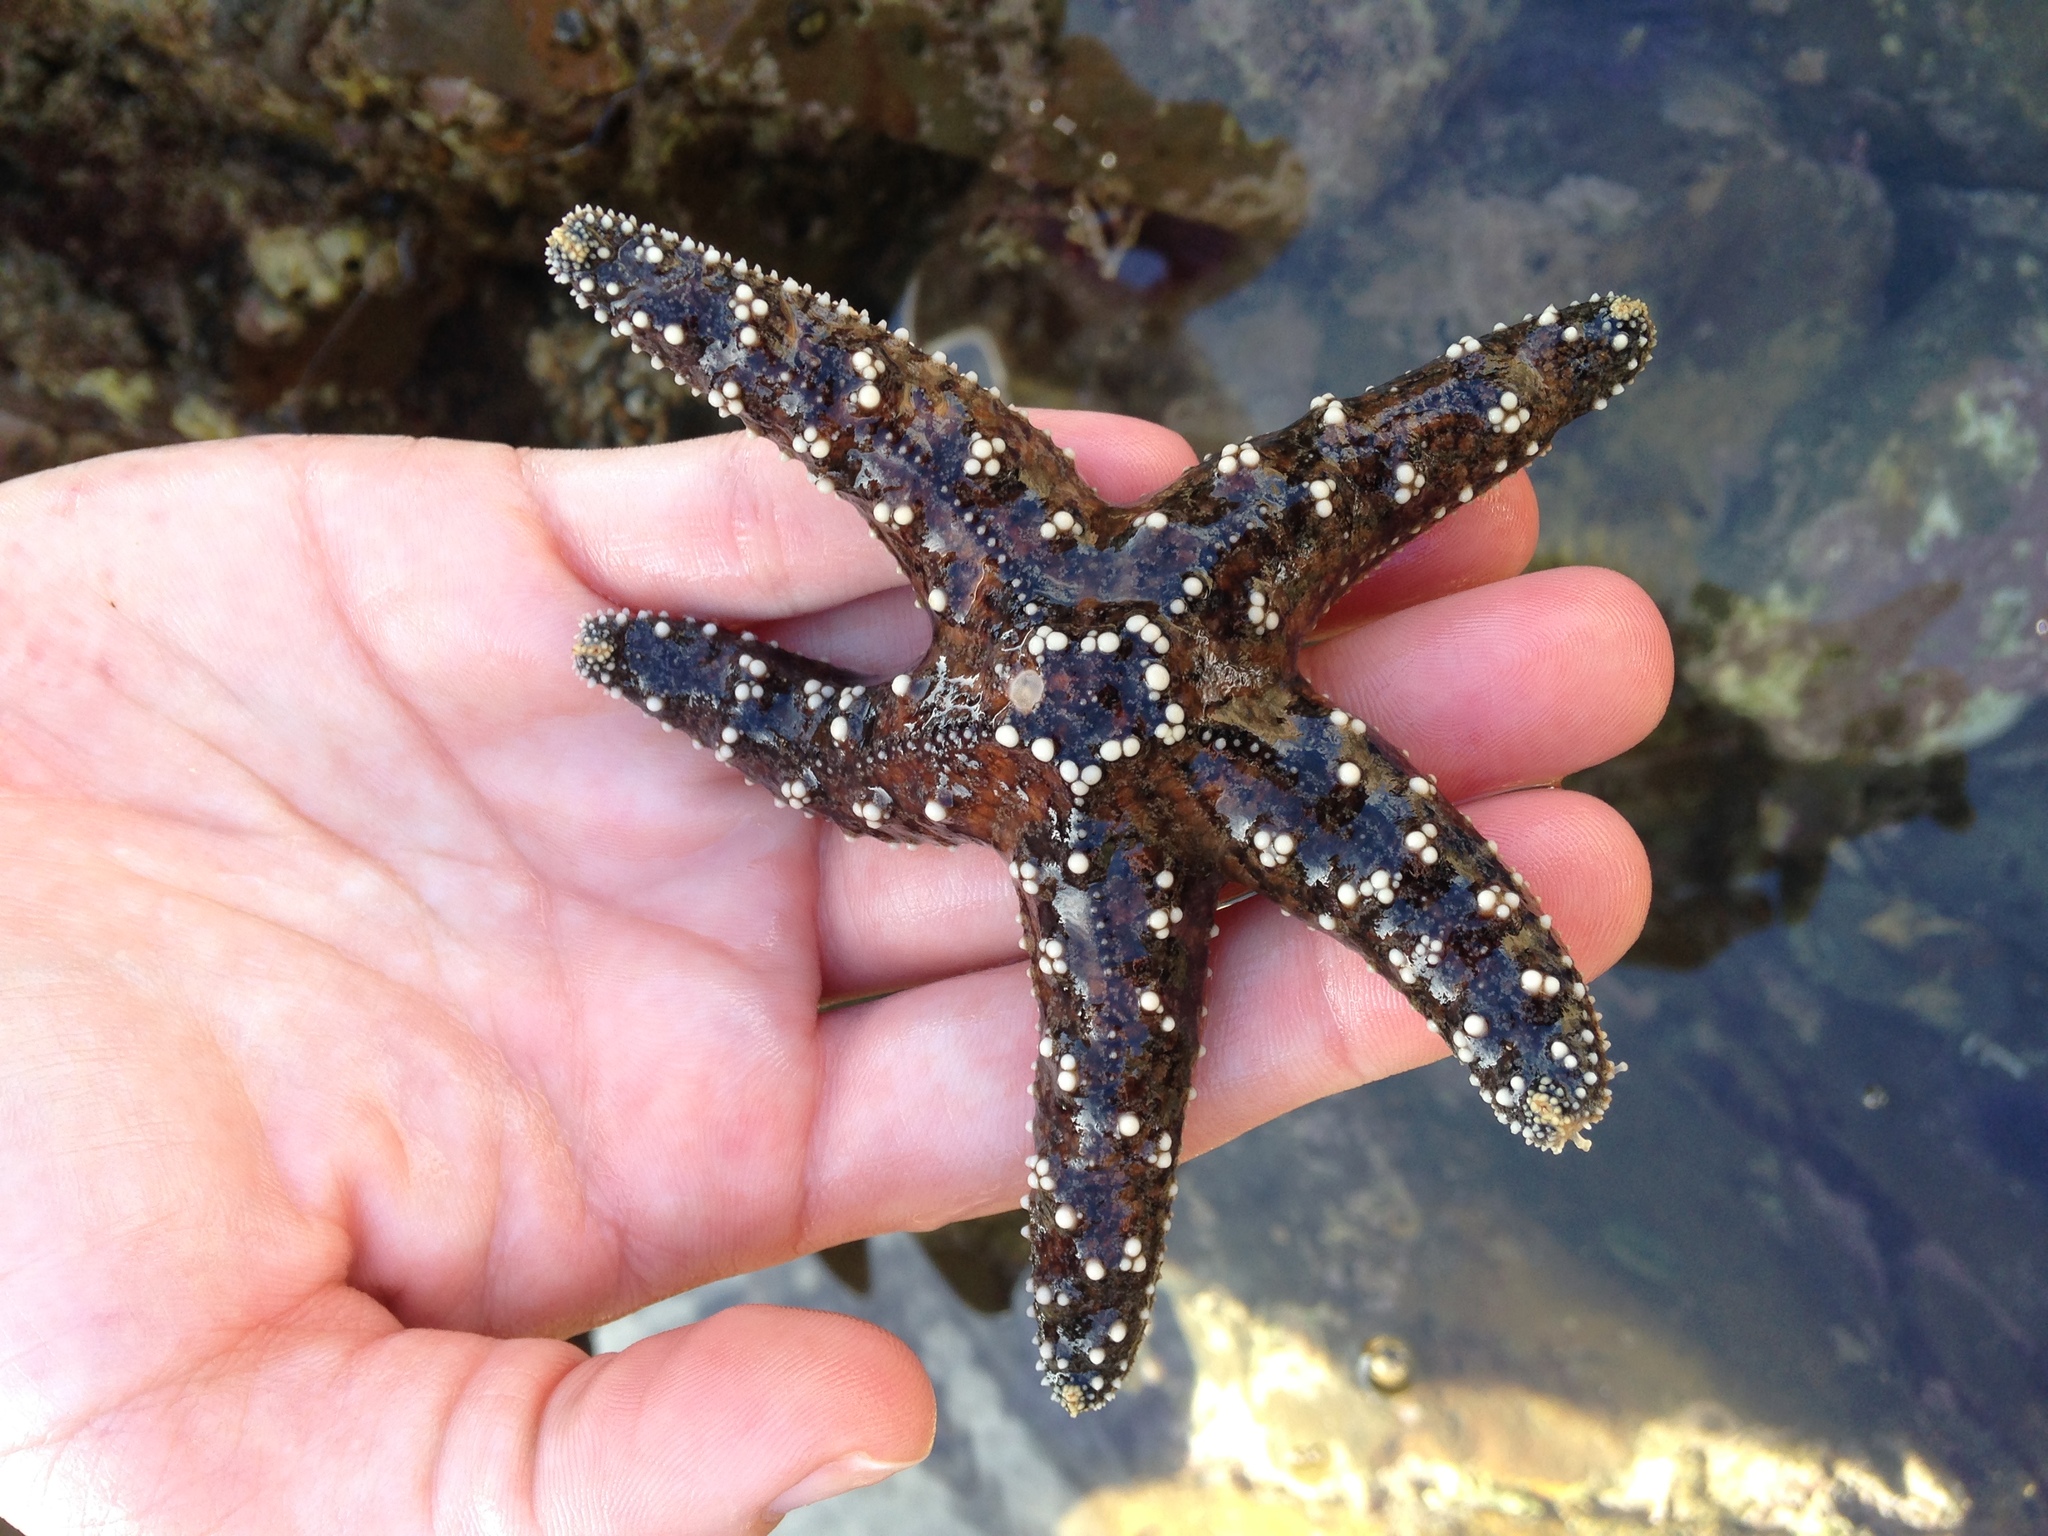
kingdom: Animalia
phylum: Echinodermata
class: Asteroidea
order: Forcipulatida
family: Asteriidae
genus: Pisaster
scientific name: Pisaster ochraceus
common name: Ochre stars
